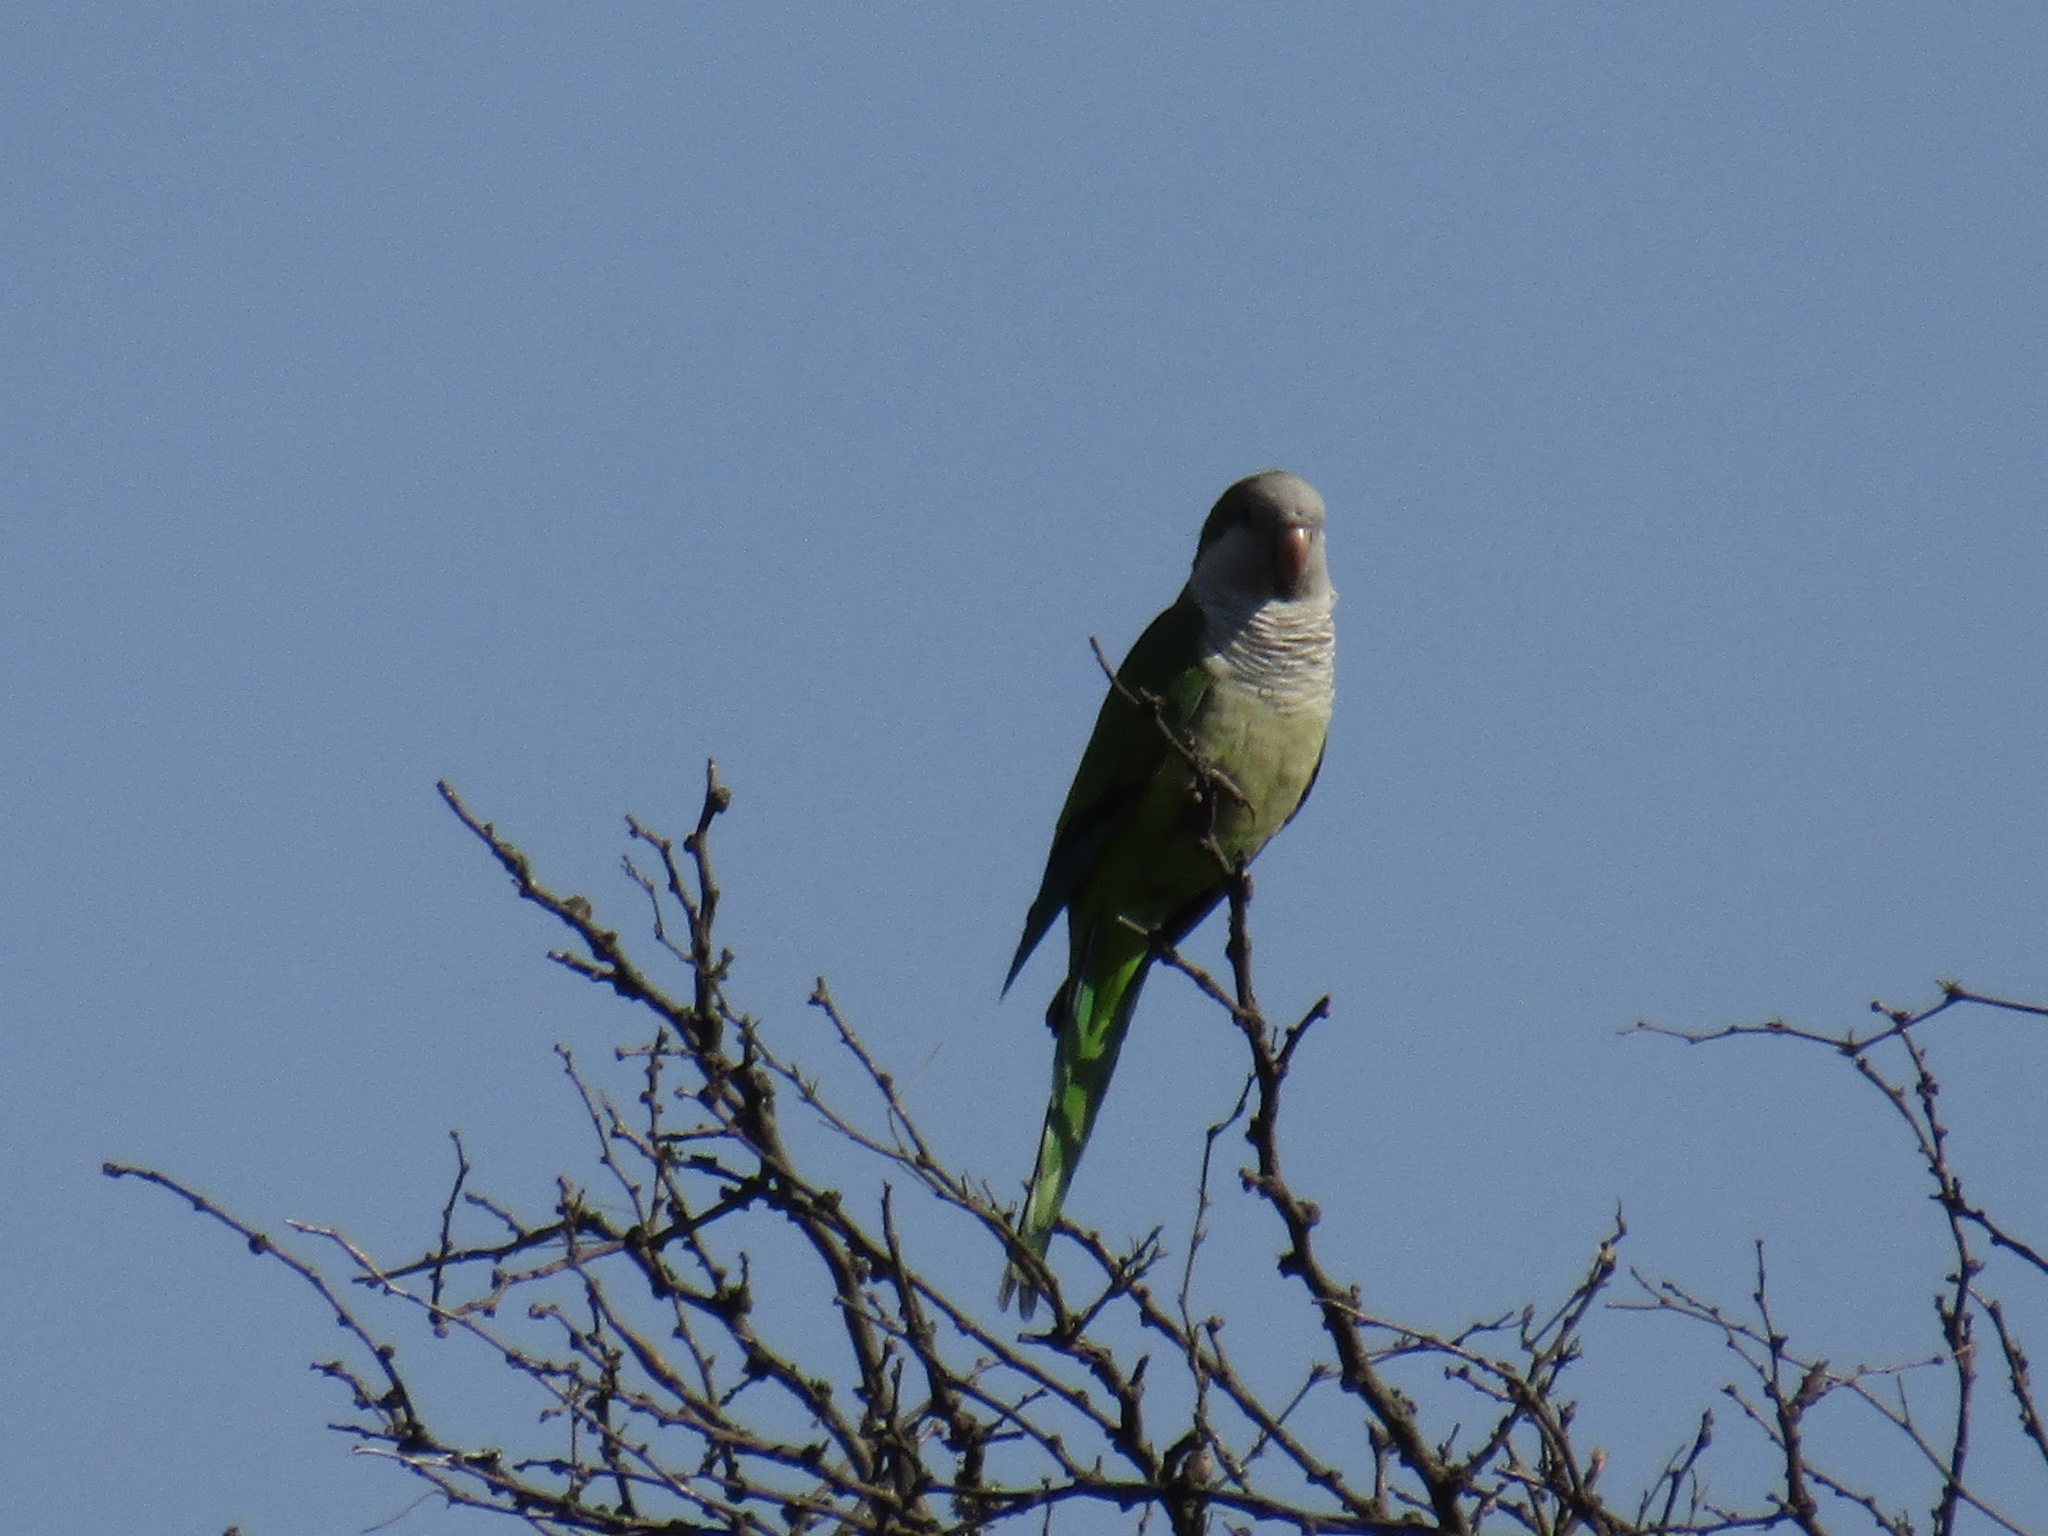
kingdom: Animalia
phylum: Chordata
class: Aves
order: Psittaciformes
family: Psittacidae
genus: Myiopsitta
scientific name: Myiopsitta monachus
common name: Monk parakeet
